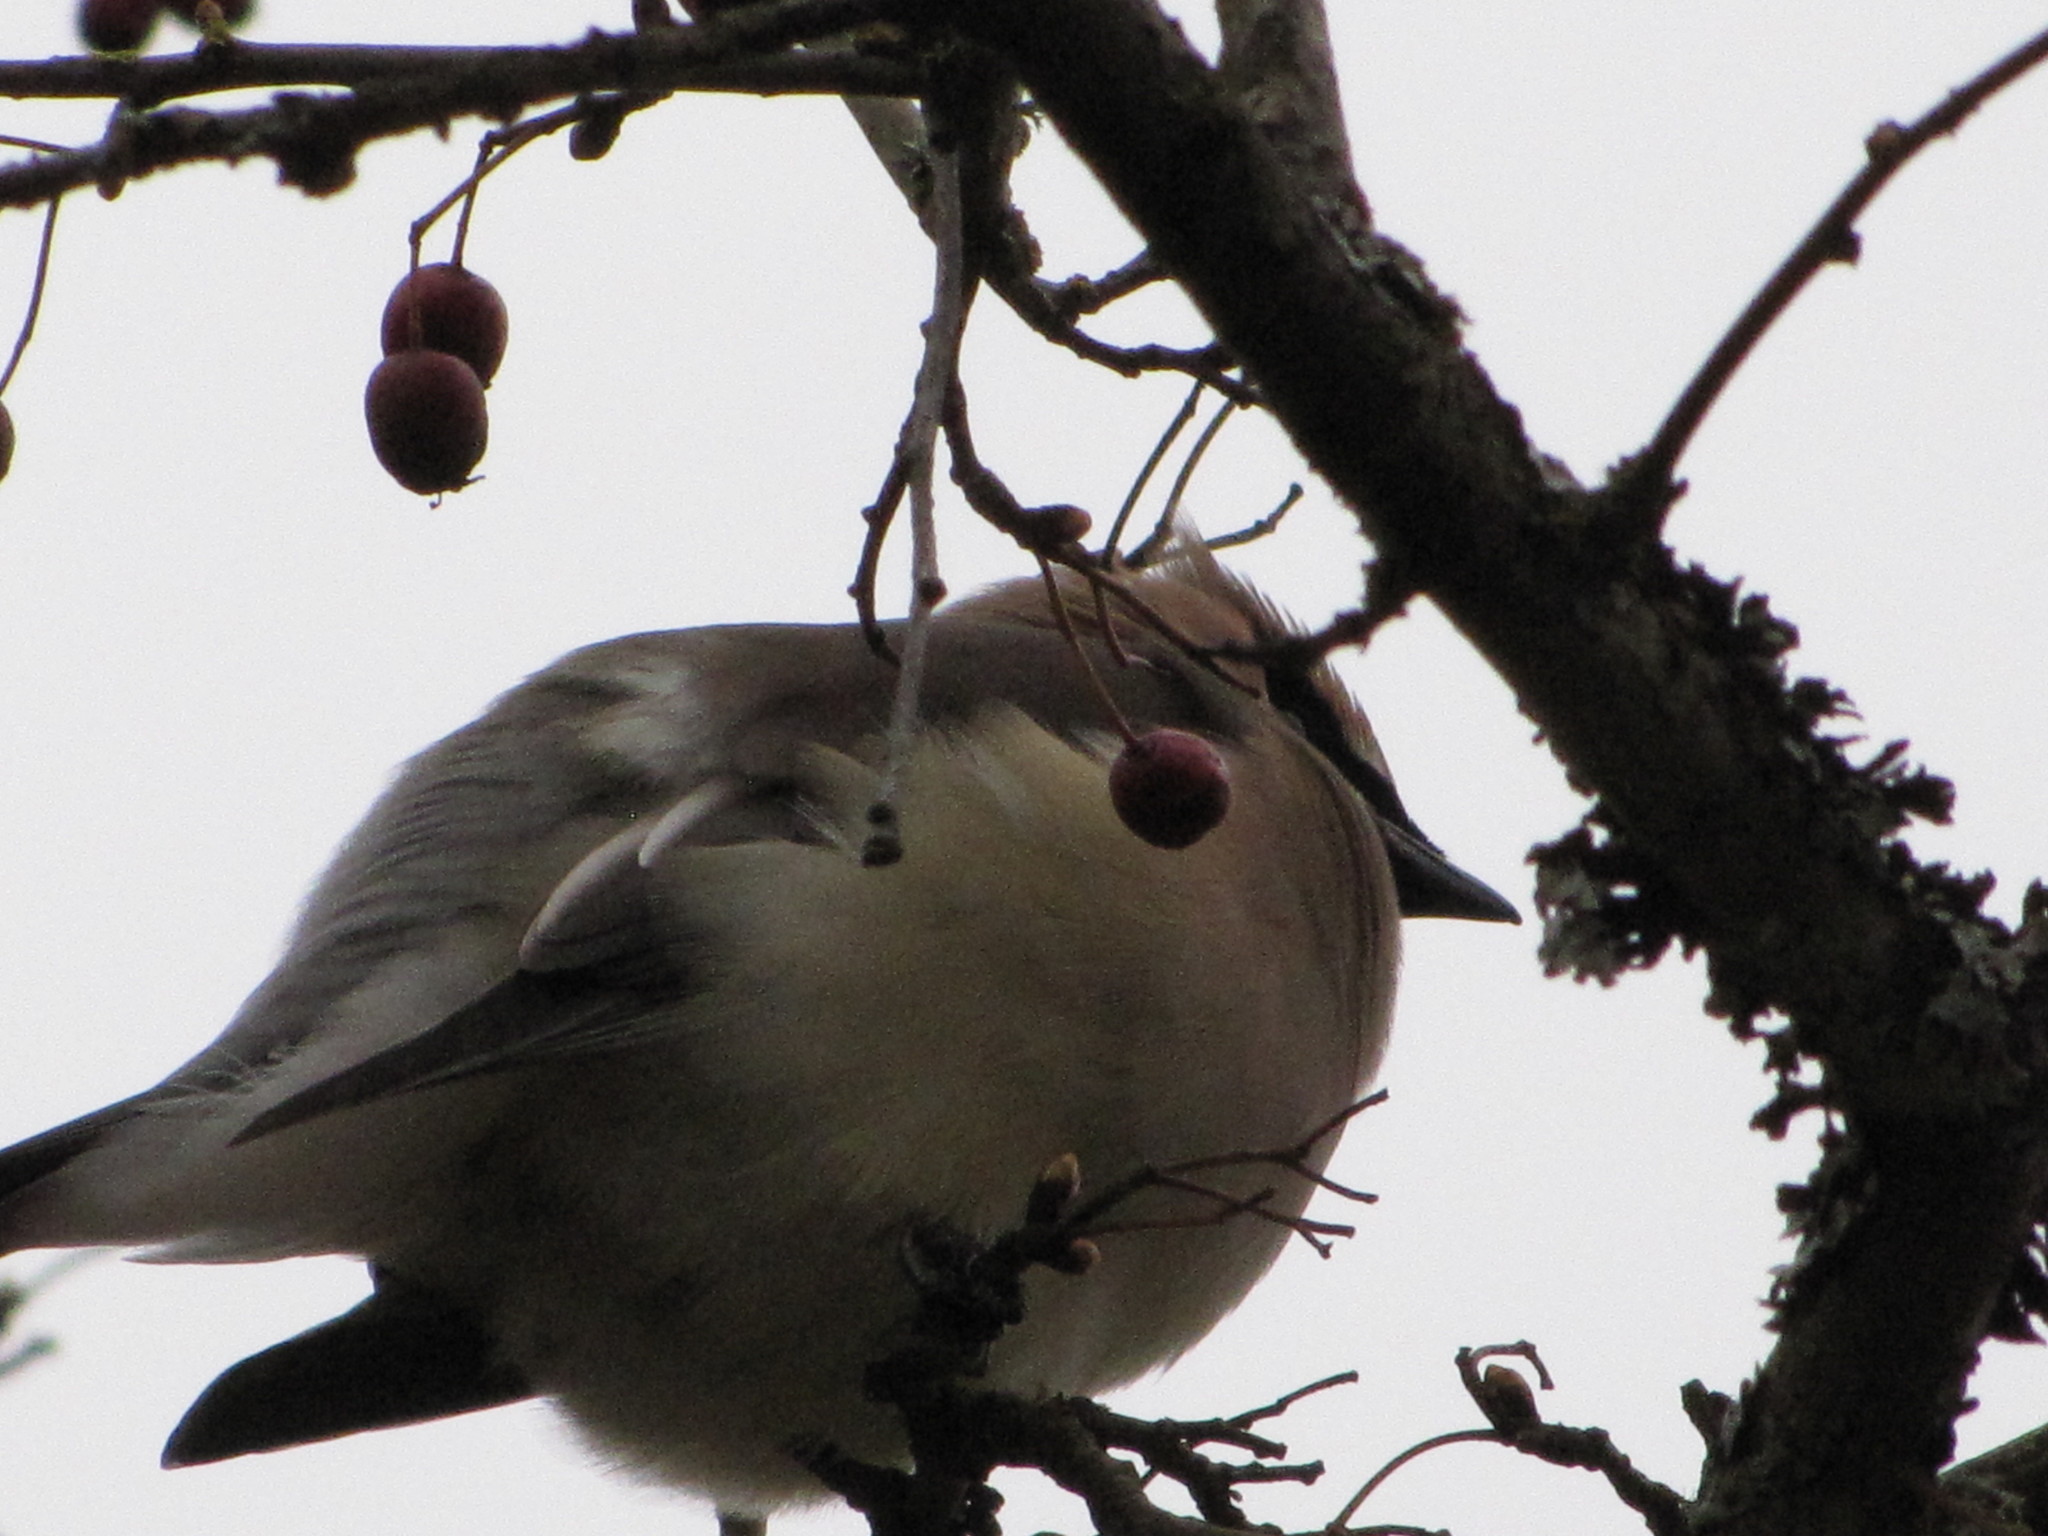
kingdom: Animalia
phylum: Chordata
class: Aves
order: Passeriformes
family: Bombycillidae
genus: Bombycilla
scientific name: Bombycilla cedrorum
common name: Cedar waxwing
